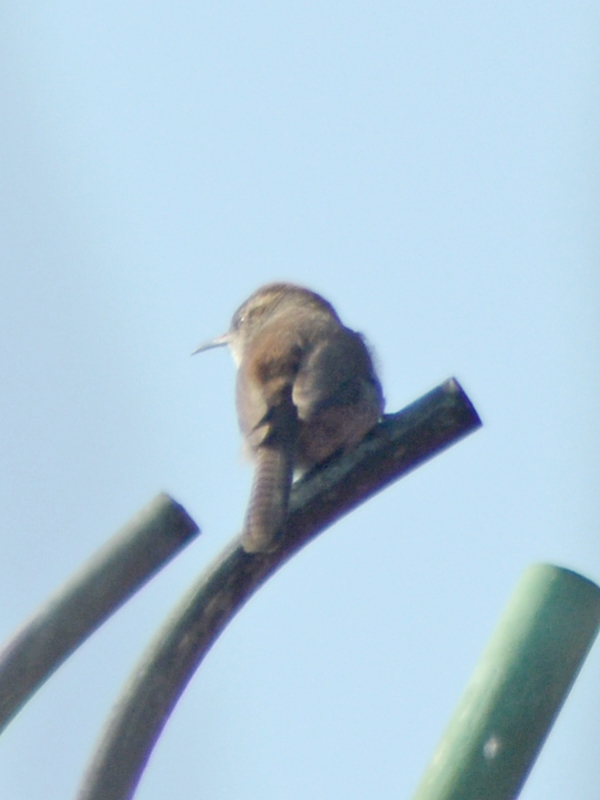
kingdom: Animalia
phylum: Chordata
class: Aves
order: Passeriformes
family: Troglodytidae
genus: Thryomanes
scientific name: Thryomanes bewickii
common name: Bewick's wren
